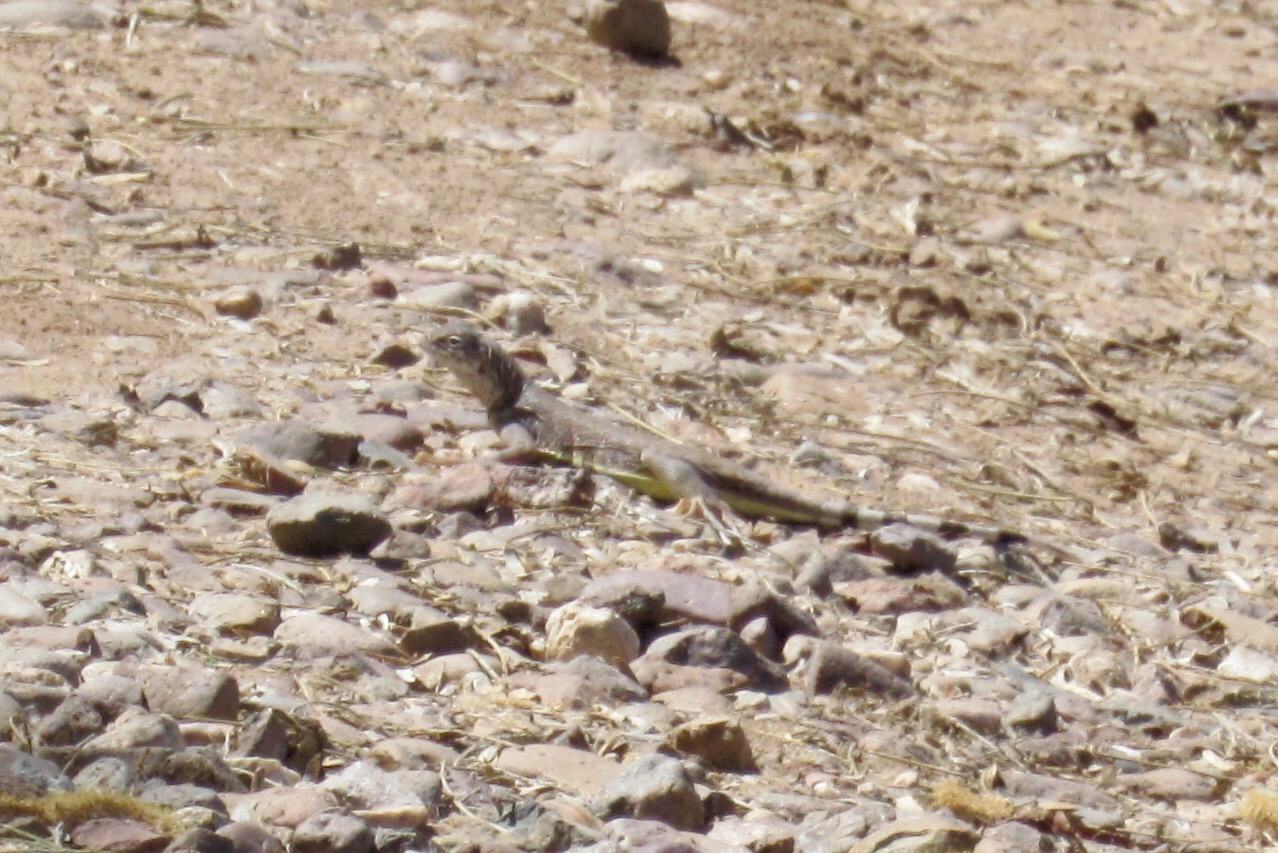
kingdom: Animalia
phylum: Chordata
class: Squamata
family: Phrynosomatidae
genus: Callisaurus
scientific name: Callisaurus draconoides
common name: Zebra-tailed lizard
